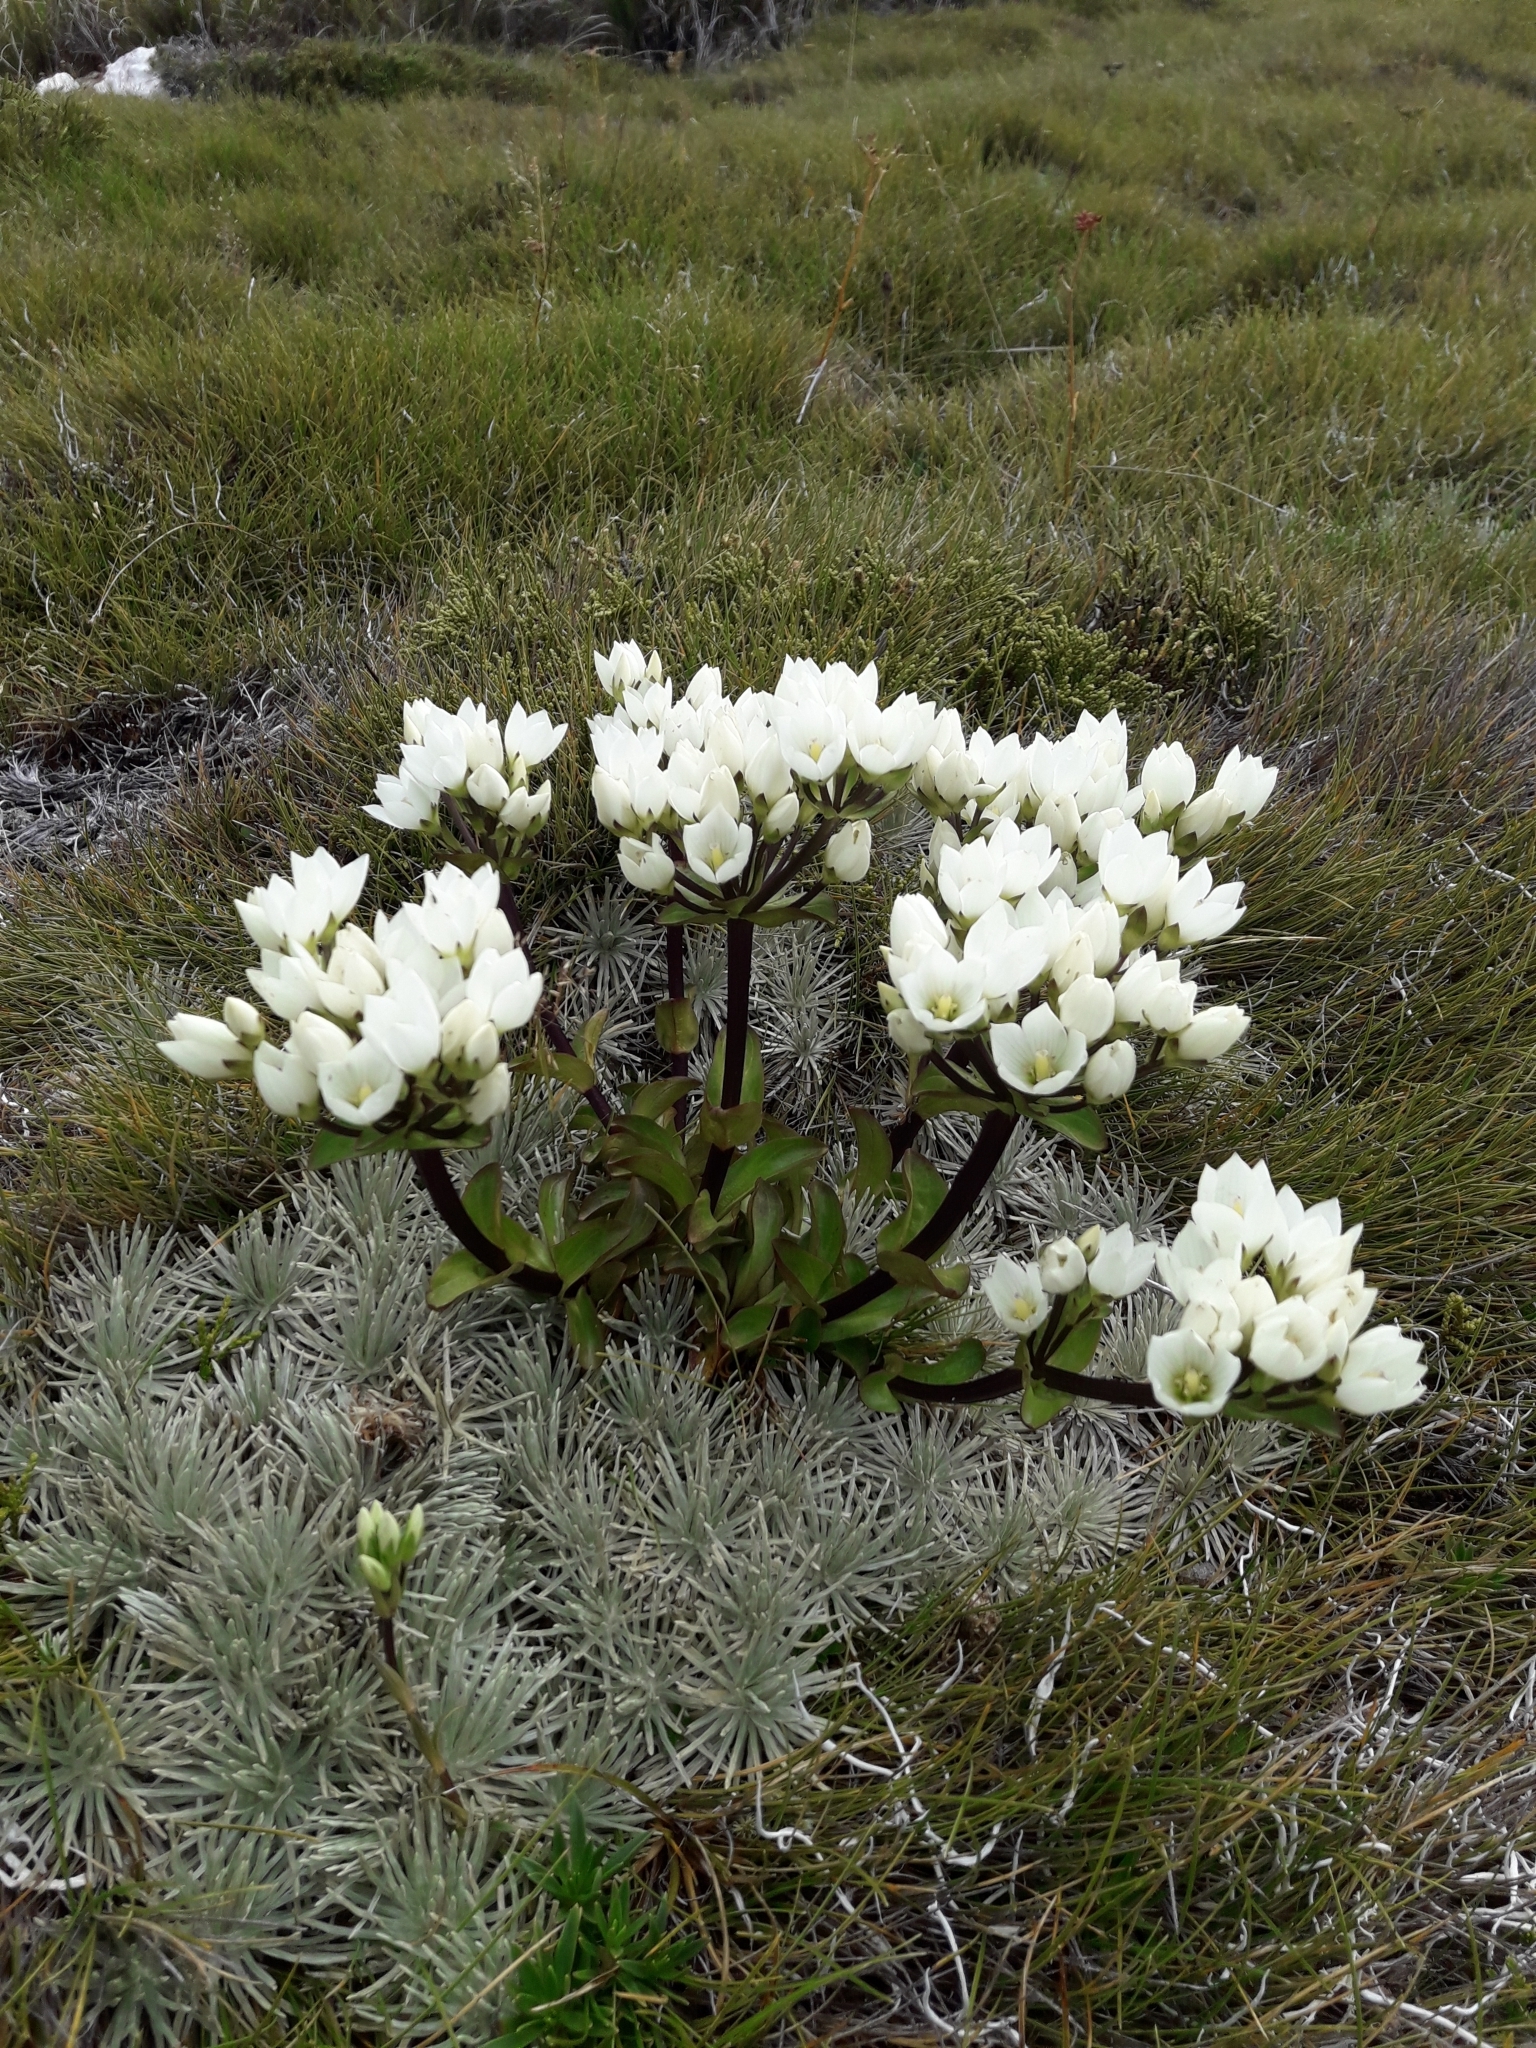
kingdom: Plantae
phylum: Tracheophyta
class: Magnoliopsida
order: Gentianales
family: Gentianaceae
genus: Gentianella
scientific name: Gentianella patula
